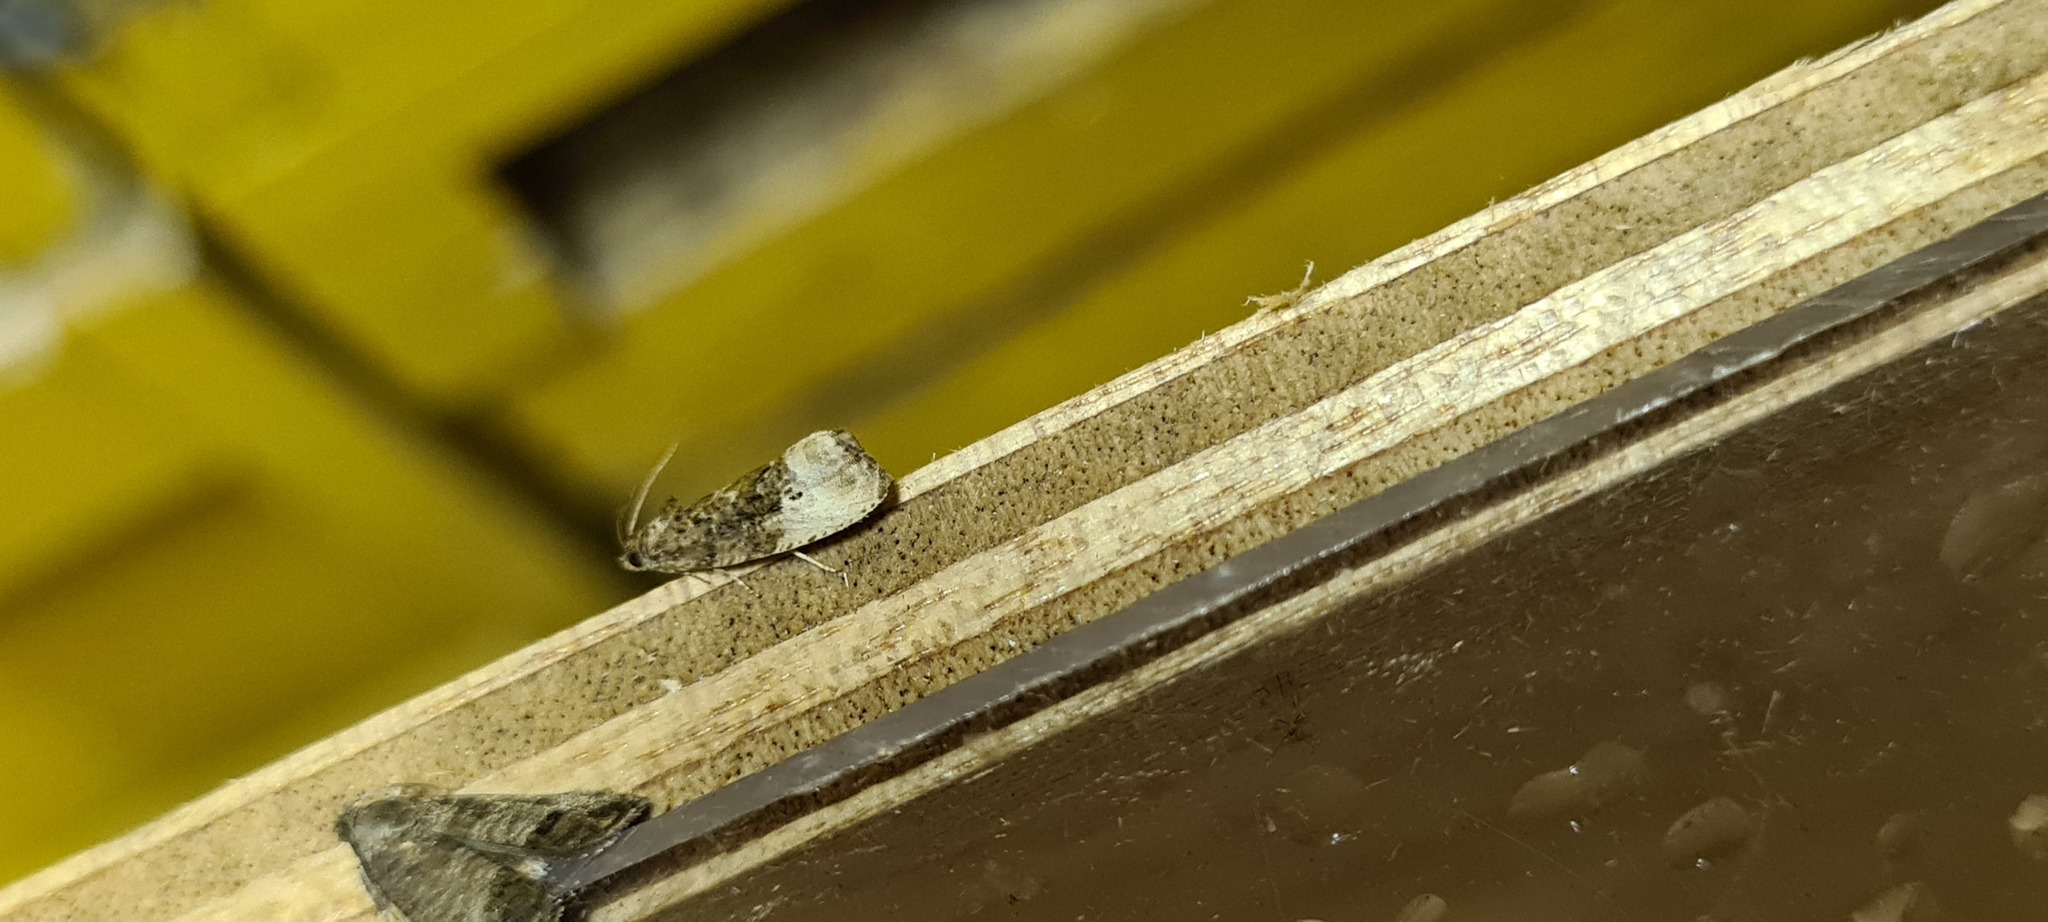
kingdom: Animalia
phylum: Arthropoda
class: Insecta
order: Lepidoptera
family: Tortricidae
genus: Hedya
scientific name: Hedya nubiferana
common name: Marbled orchard tortrix
